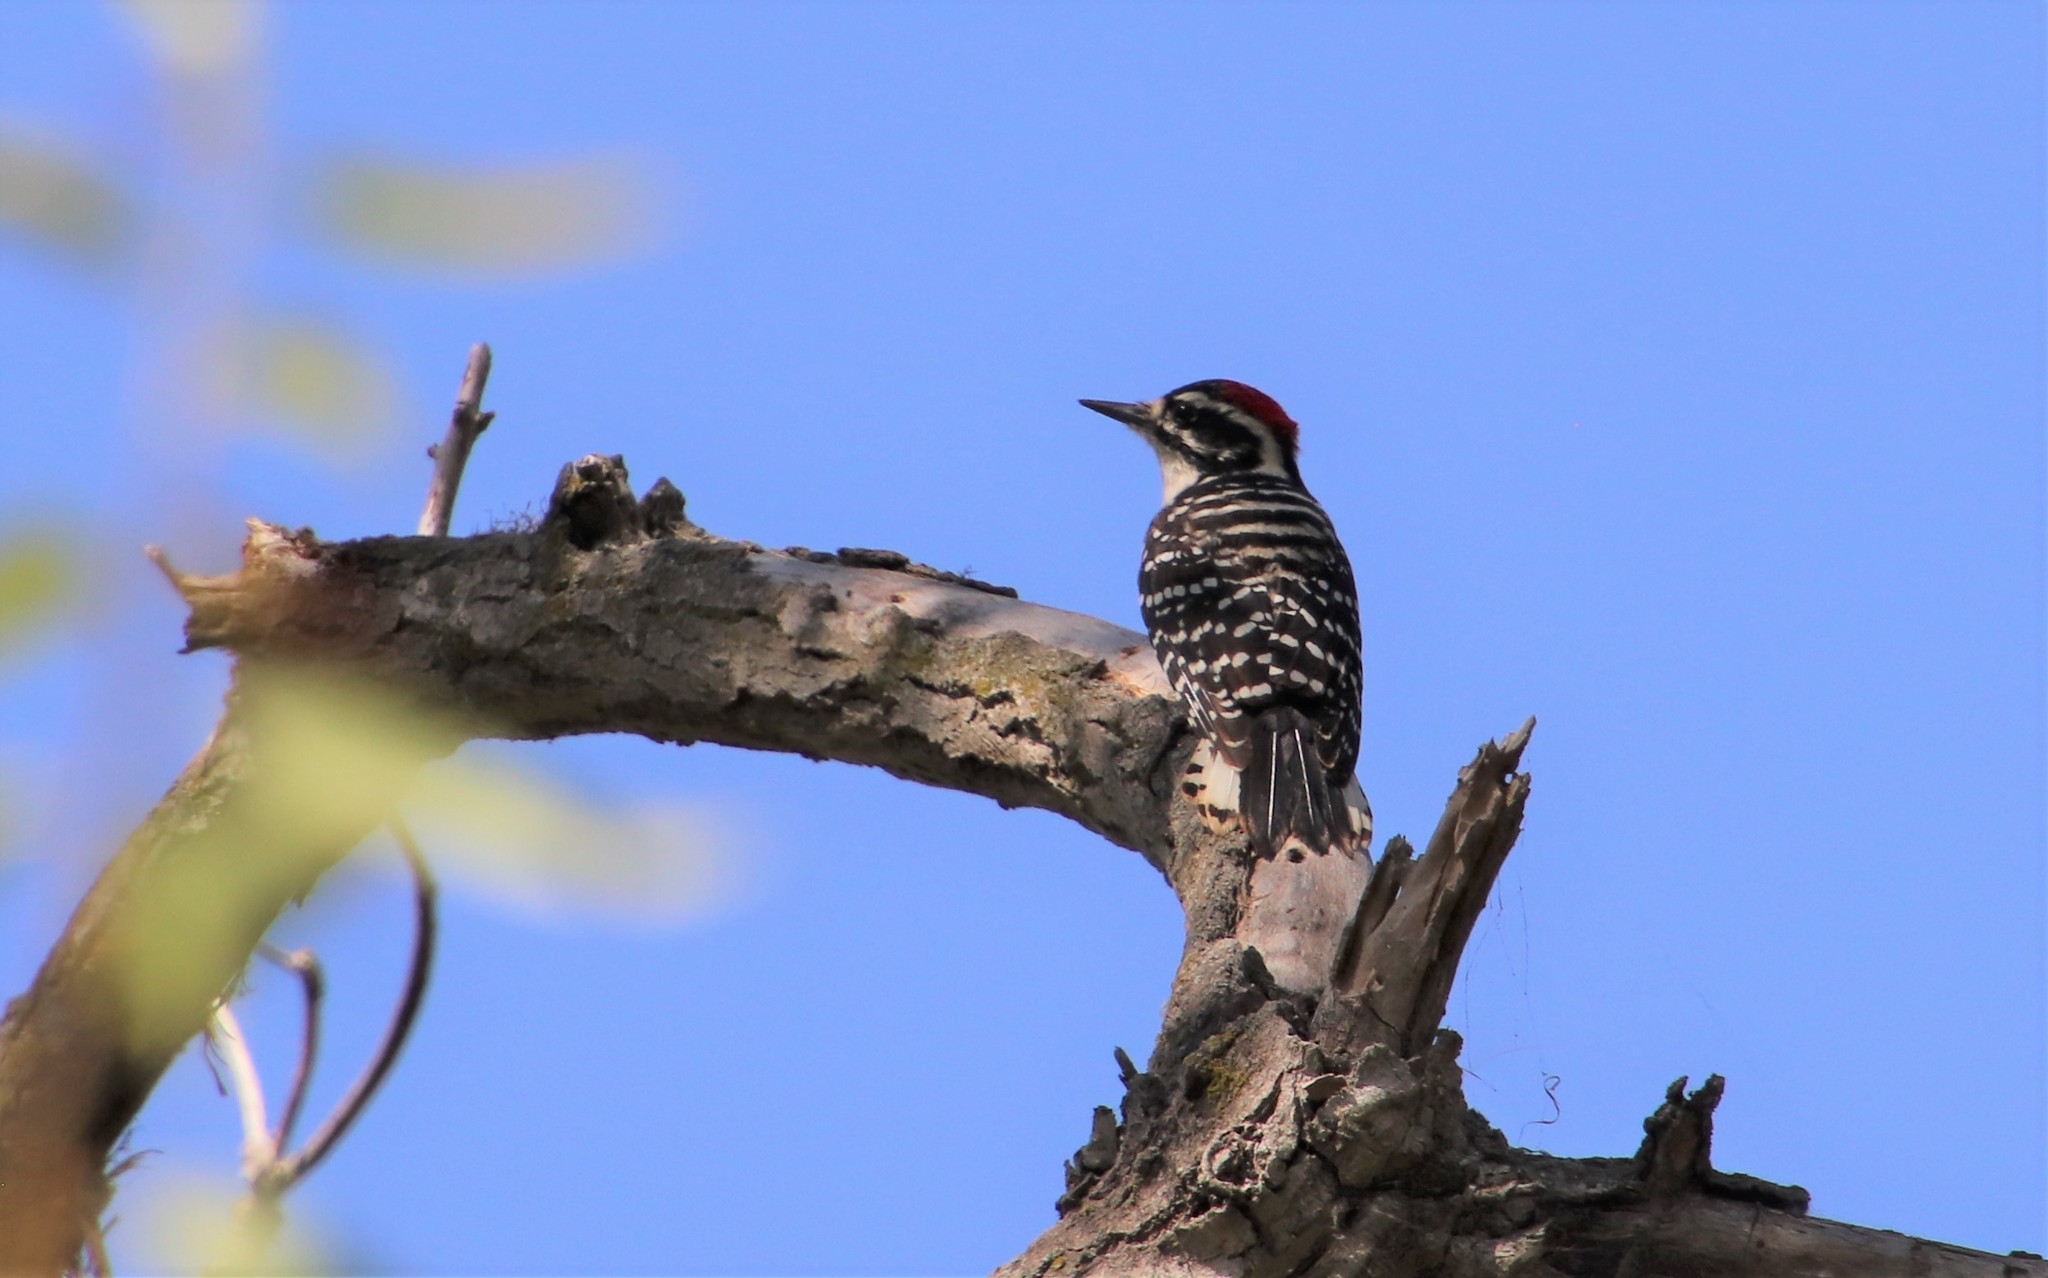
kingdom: Animalia
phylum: Chordata
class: Aves
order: Piciformes
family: Picidae
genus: Dryobates
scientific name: Dryobates nuttallii
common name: Nuttall's woodpecker
